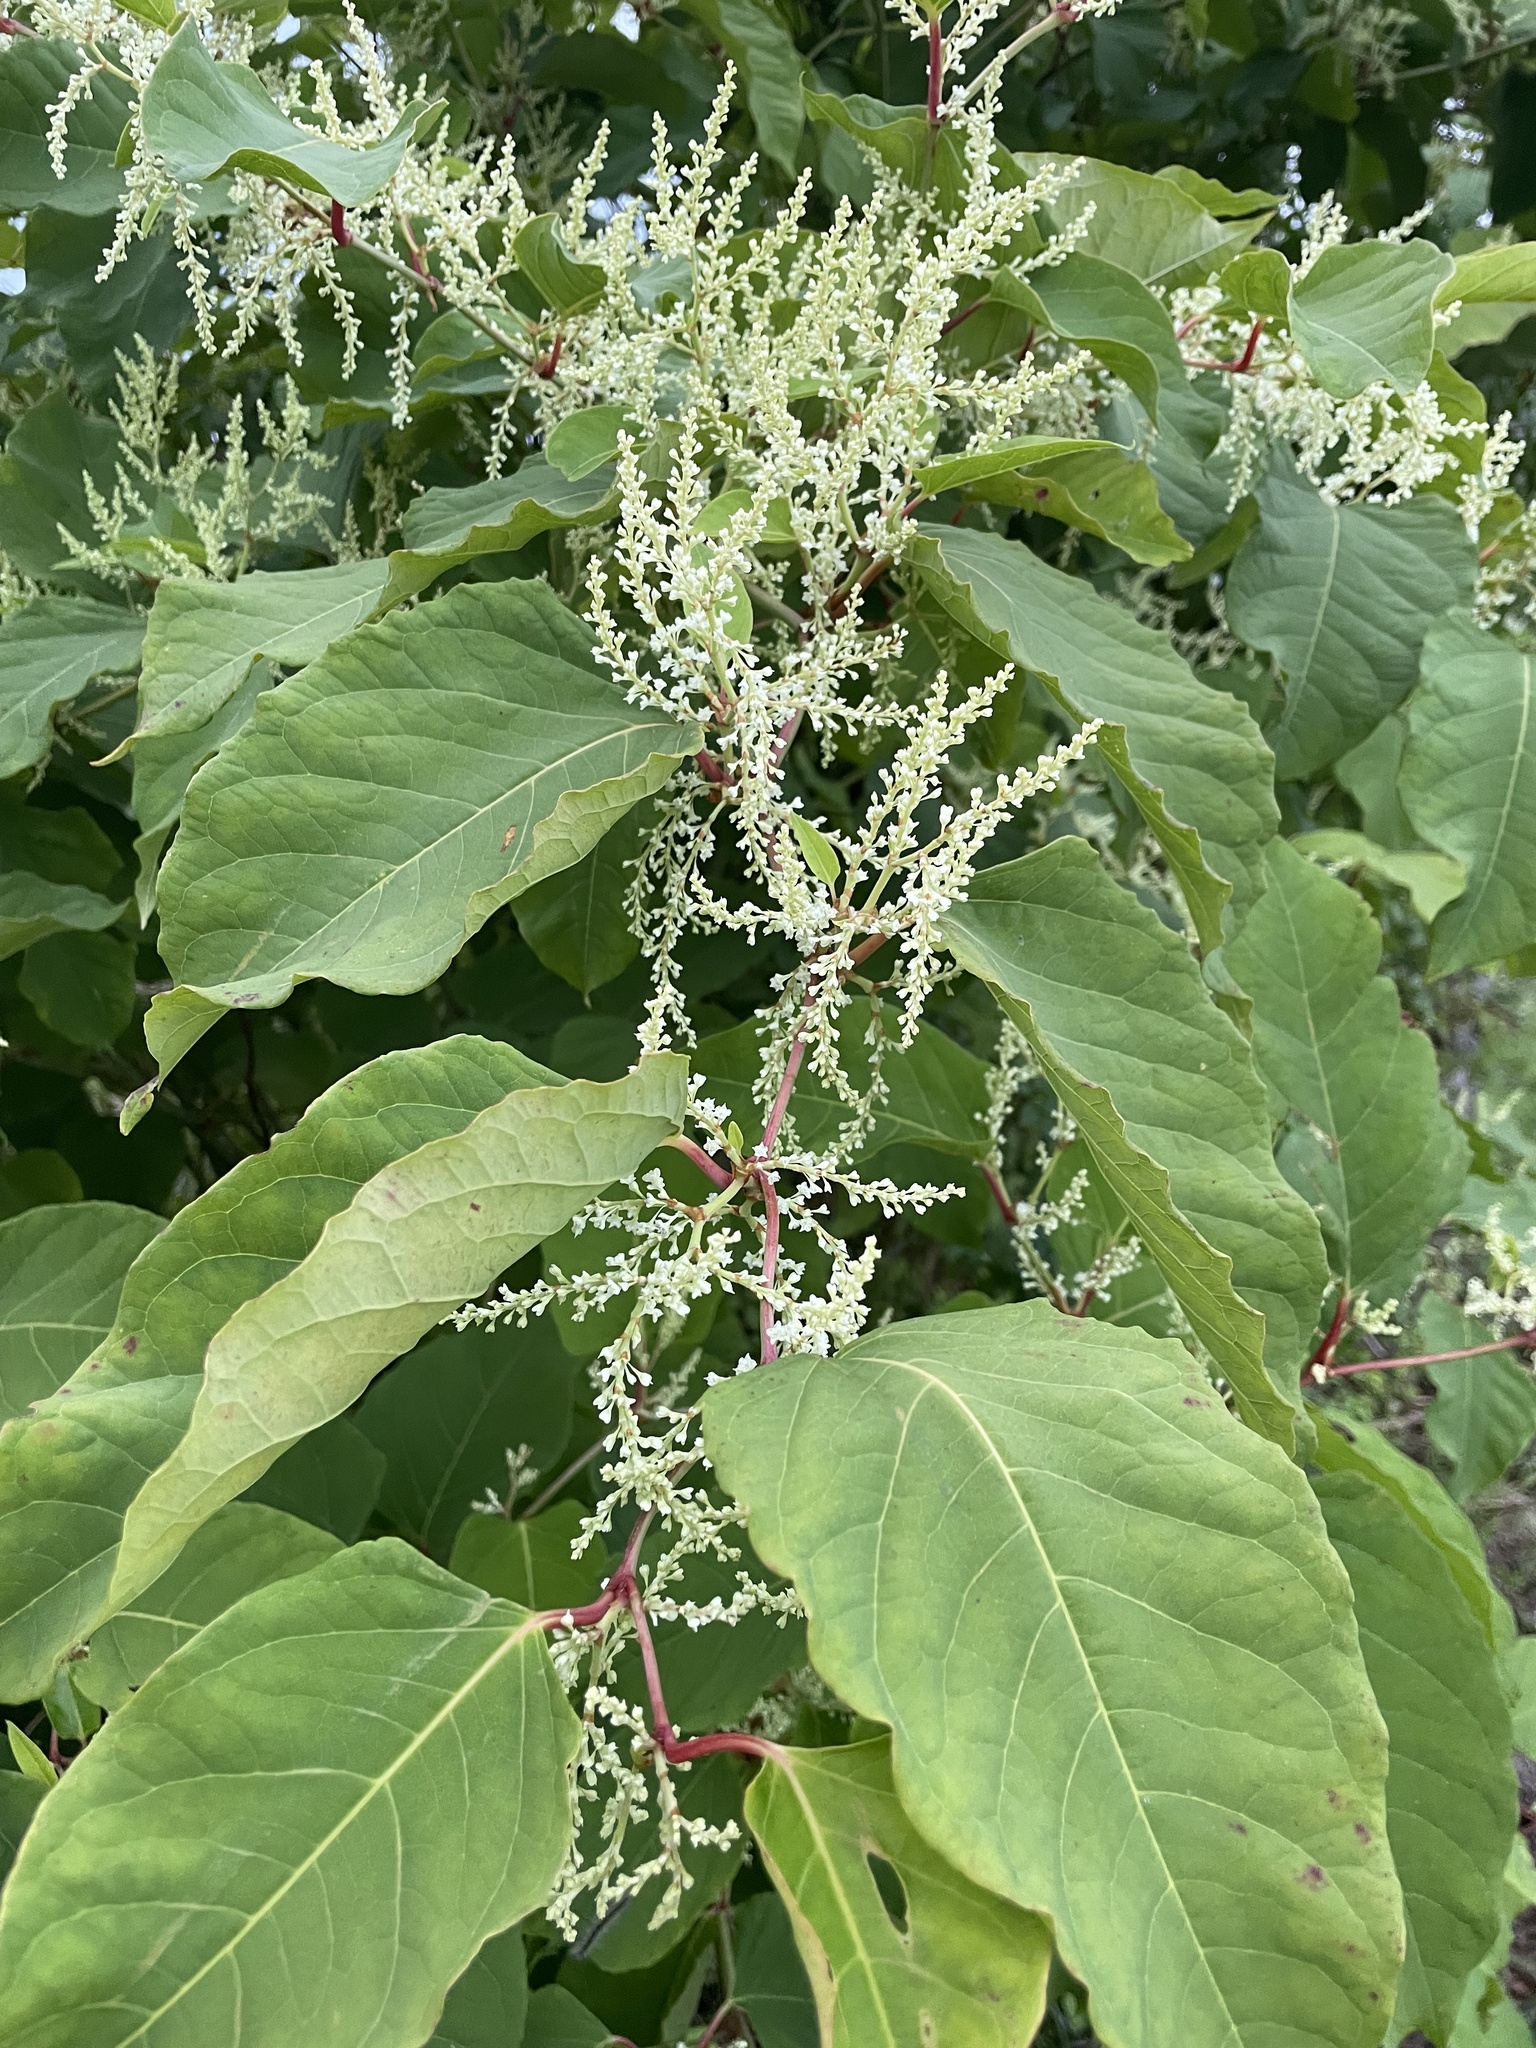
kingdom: Plantae
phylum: Tracheophyta
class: Magnoliopsida
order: Caryophyllales
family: Polygonaceae
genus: Reynoutria
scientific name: Reynoutria japonica
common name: Japanese knotweed
